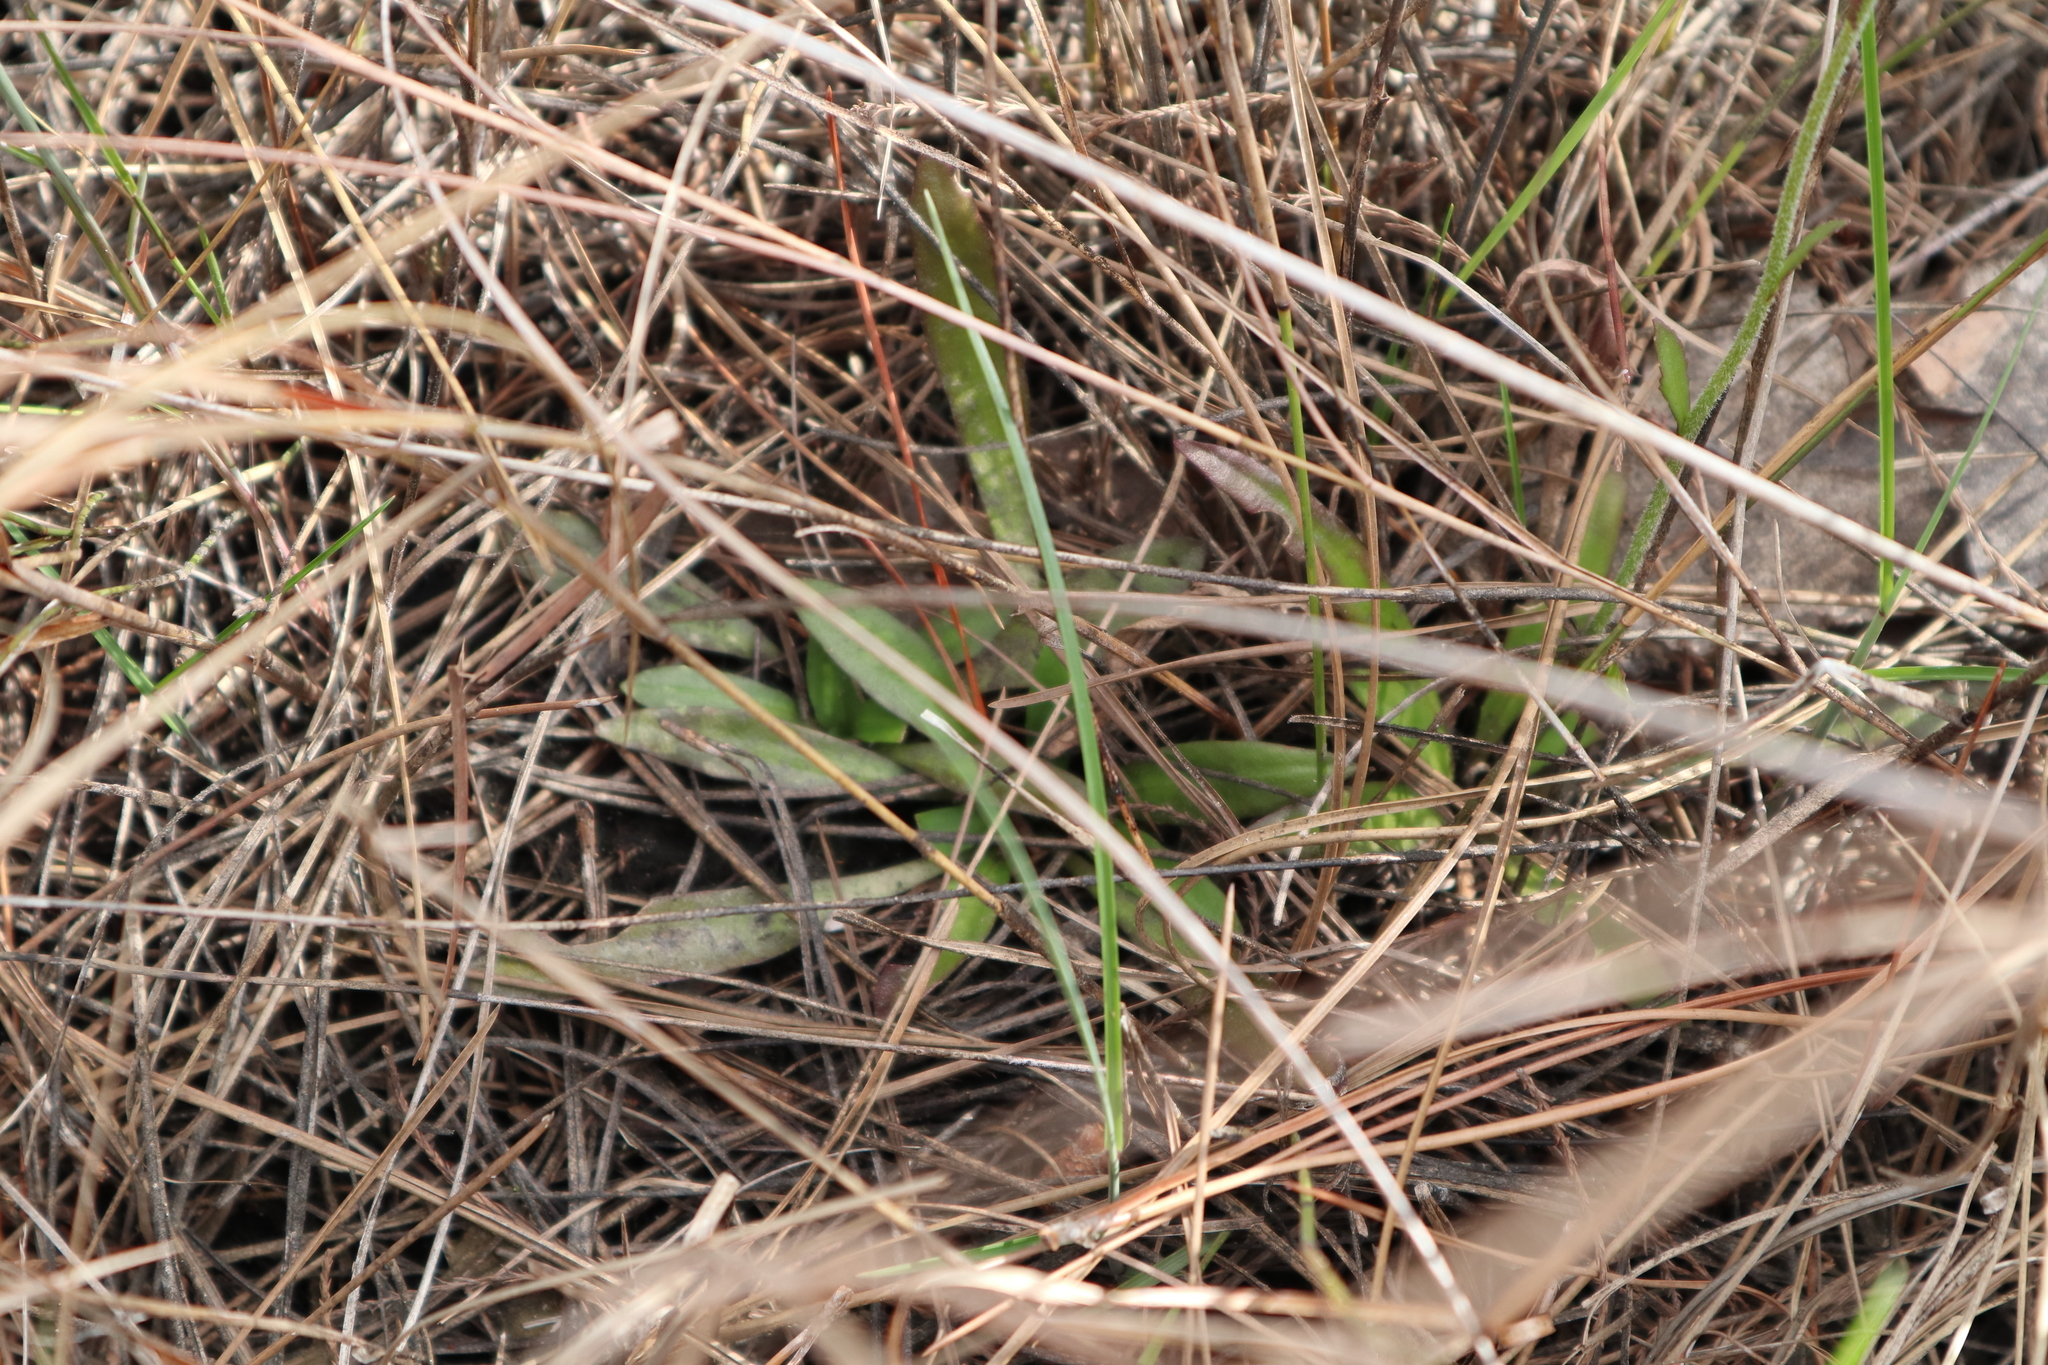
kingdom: Plantae
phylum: Tracheophyta
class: Magnoliopsida
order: Asterales
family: Asteraceae
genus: Helenium
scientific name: Helenium pinnatifidum
